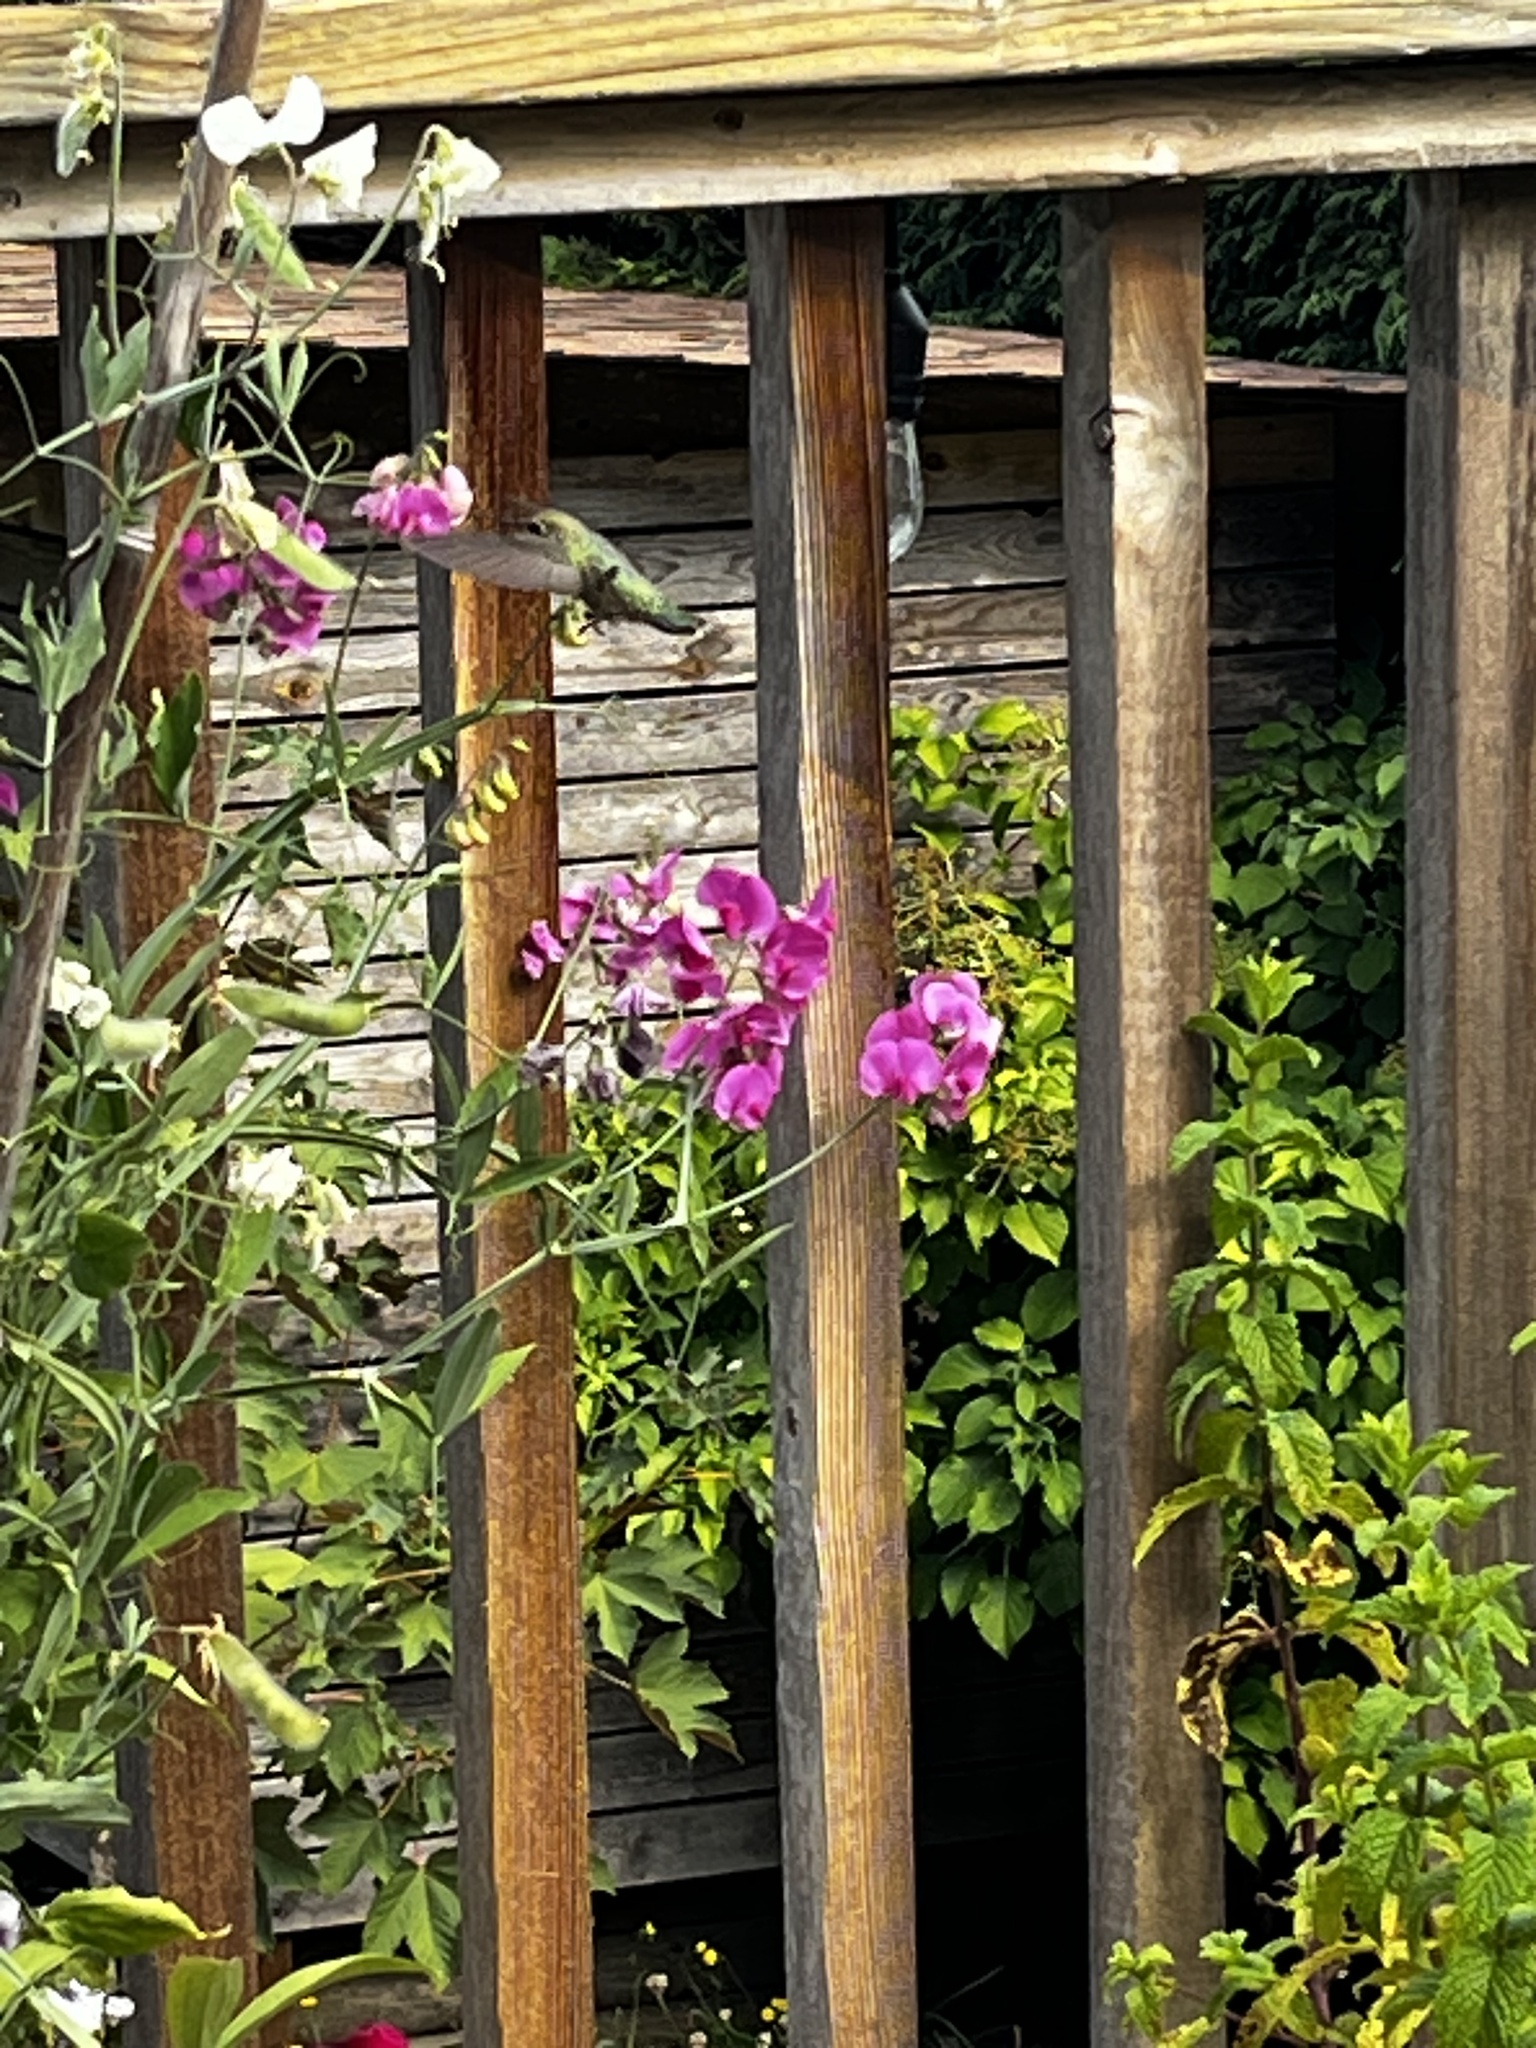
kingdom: Animalia
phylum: Chordata
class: Aves
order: Apodiformes
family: Trochilidae
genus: Calypte
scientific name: Calypte anna
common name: Anna's hummingbird
